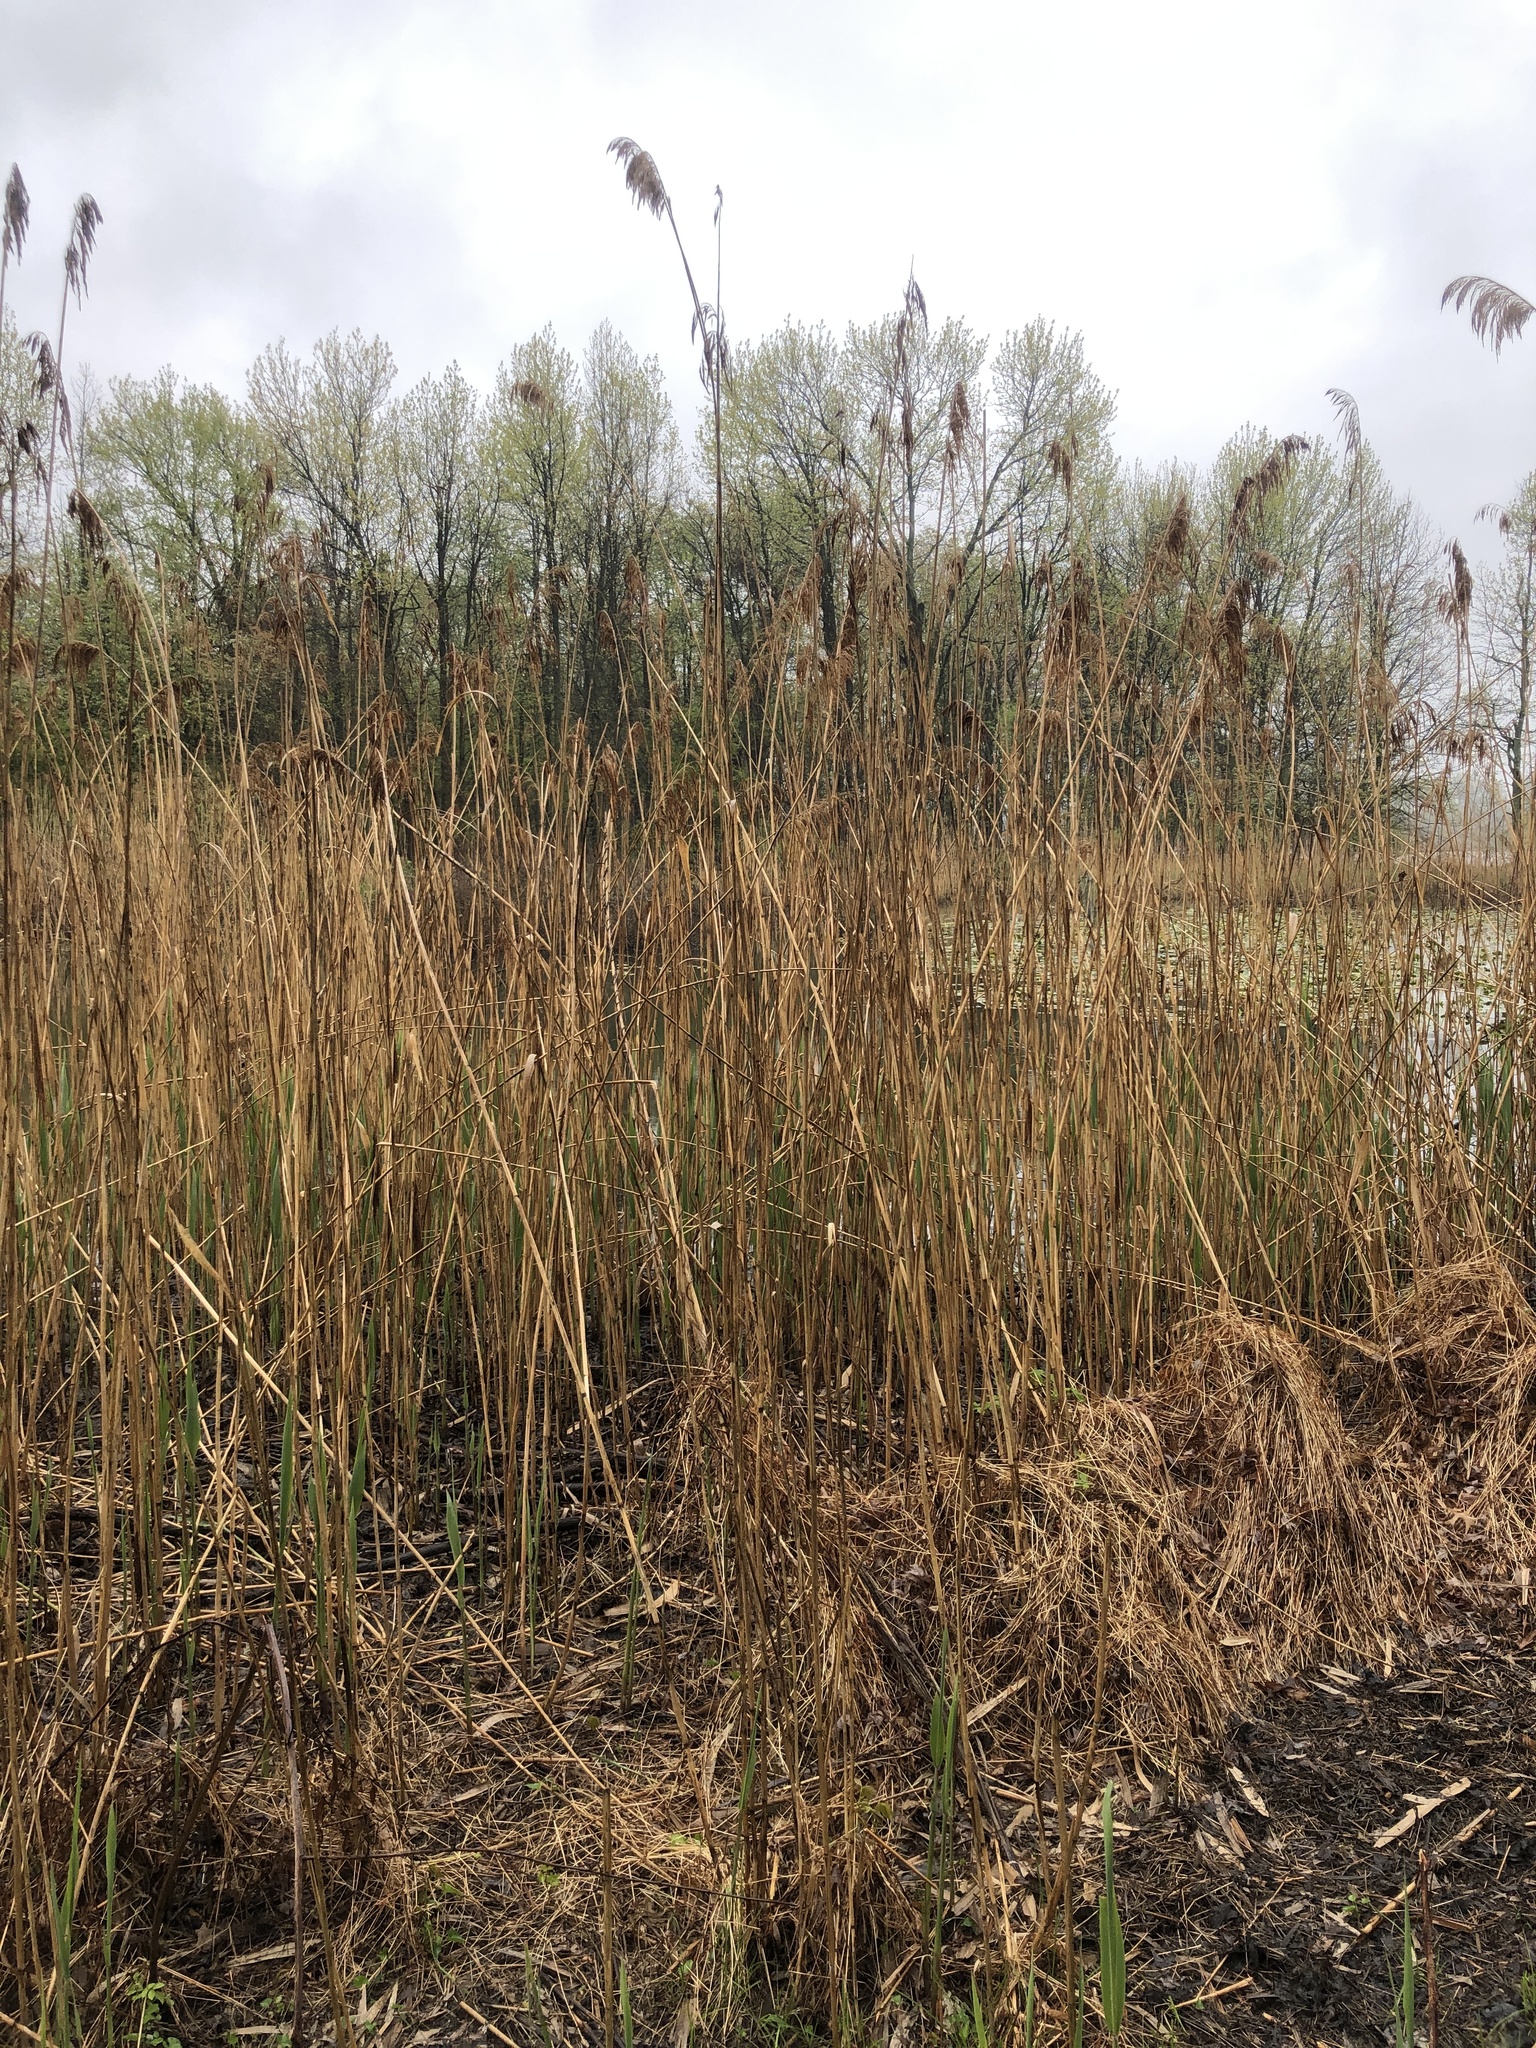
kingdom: Plantae
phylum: Tracheophyta
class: Liliopsida
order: Poales
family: Poaceae
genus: Phragmites
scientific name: Phragmites australis
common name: Common reed
